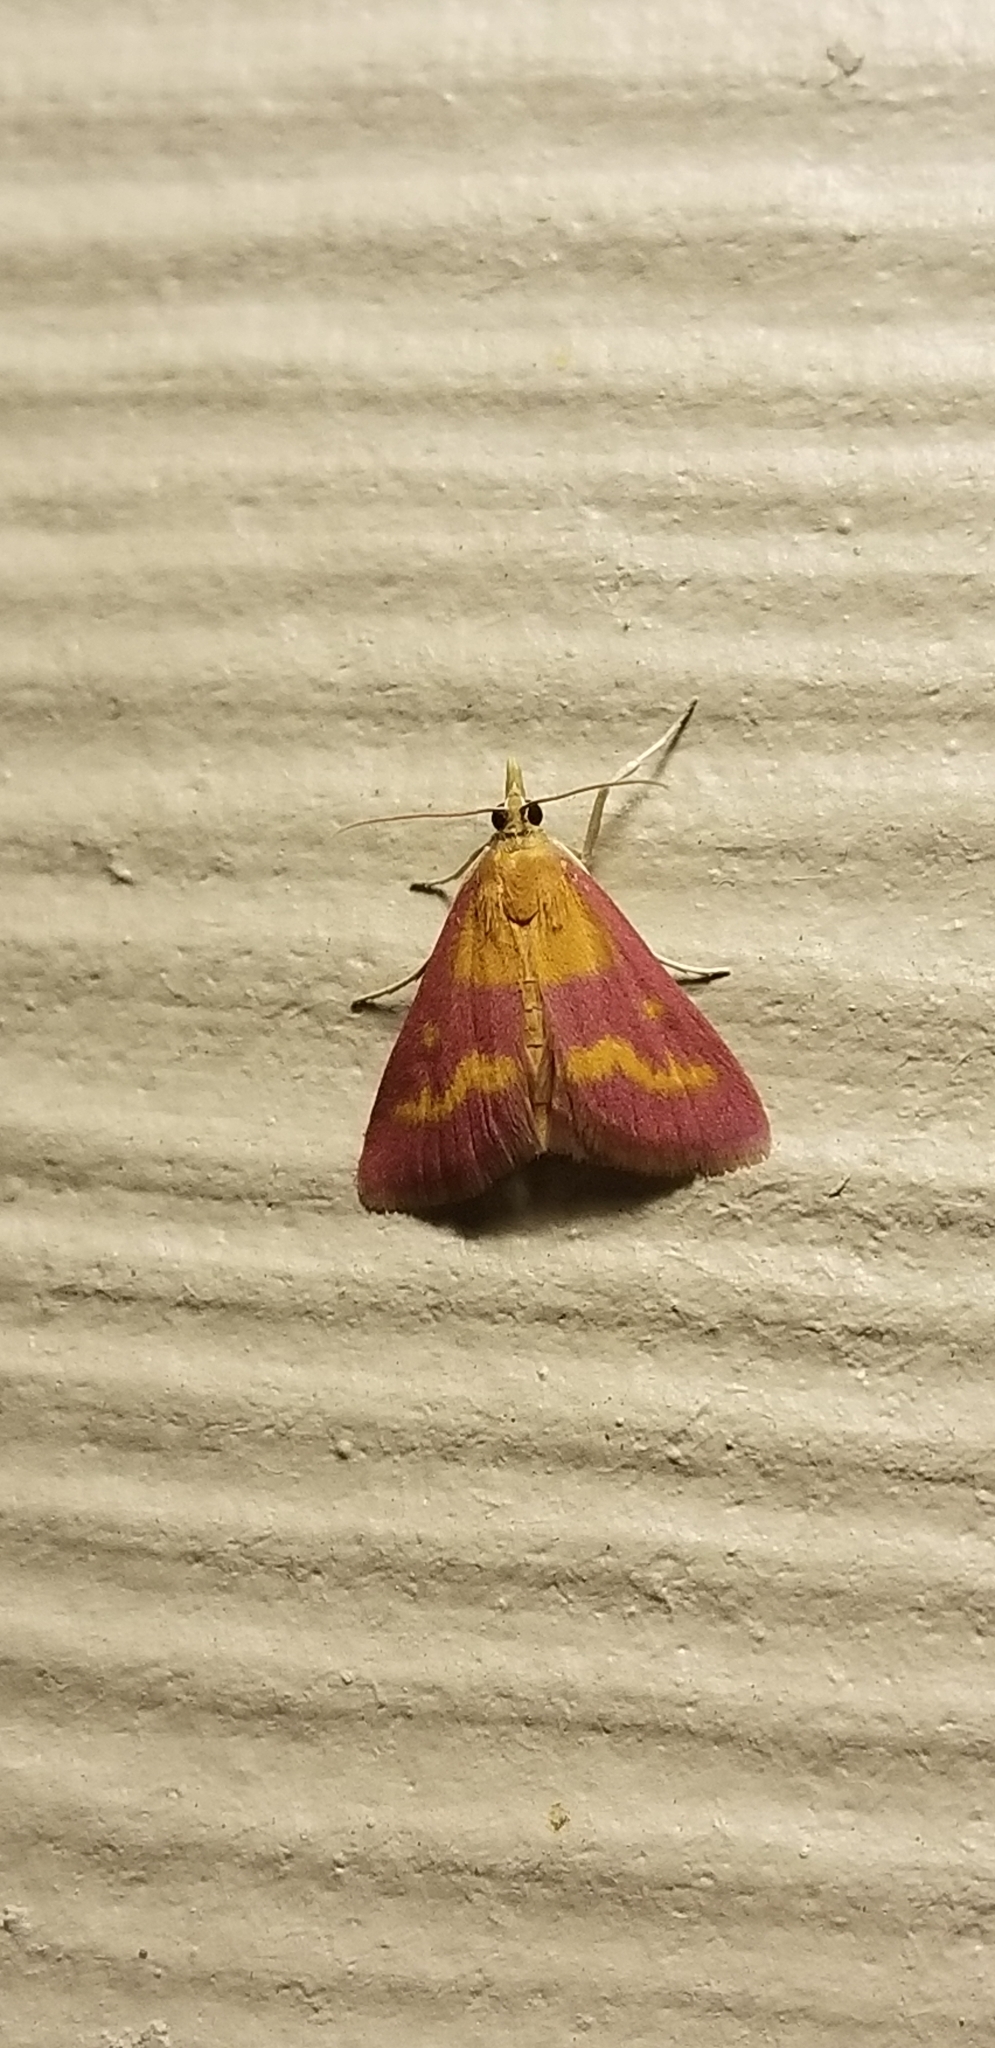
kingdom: Animalia
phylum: Arthropoda
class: Insecta
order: Lepidoptera
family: Crambidae
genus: Pyrausta
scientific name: Pyrausta laticlavia
